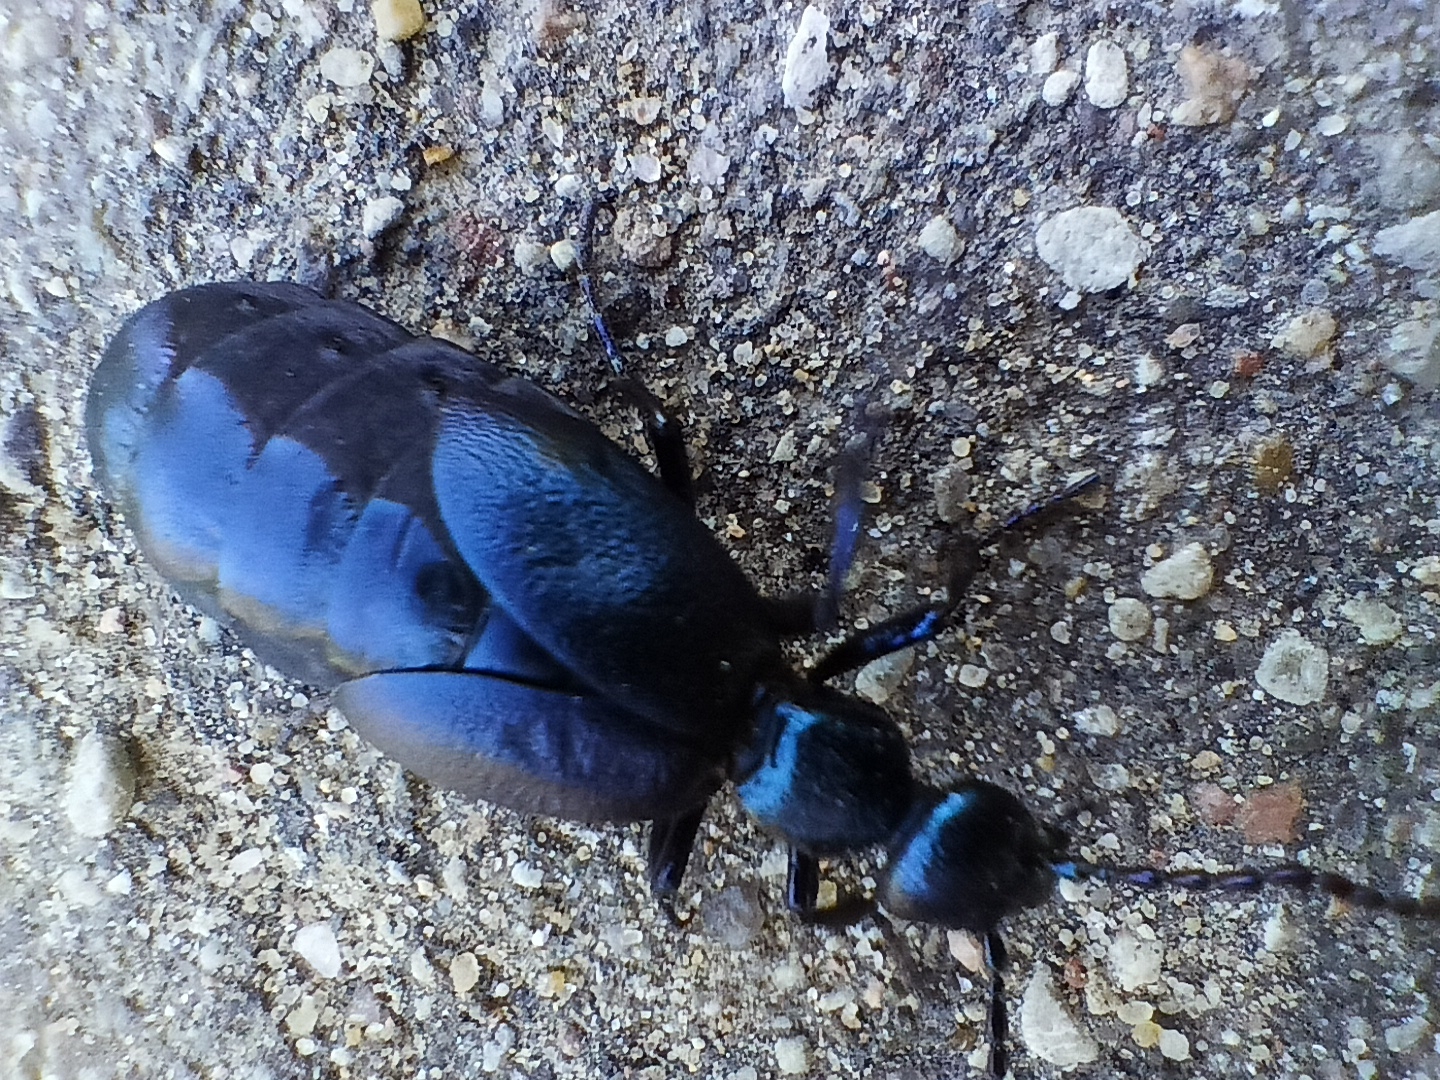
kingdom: Animalia
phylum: Arthropoda
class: Insecta
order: Coleoptera
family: Meloidae
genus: Meloe
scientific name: Meloe violaceus
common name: Violet oil-beetle
